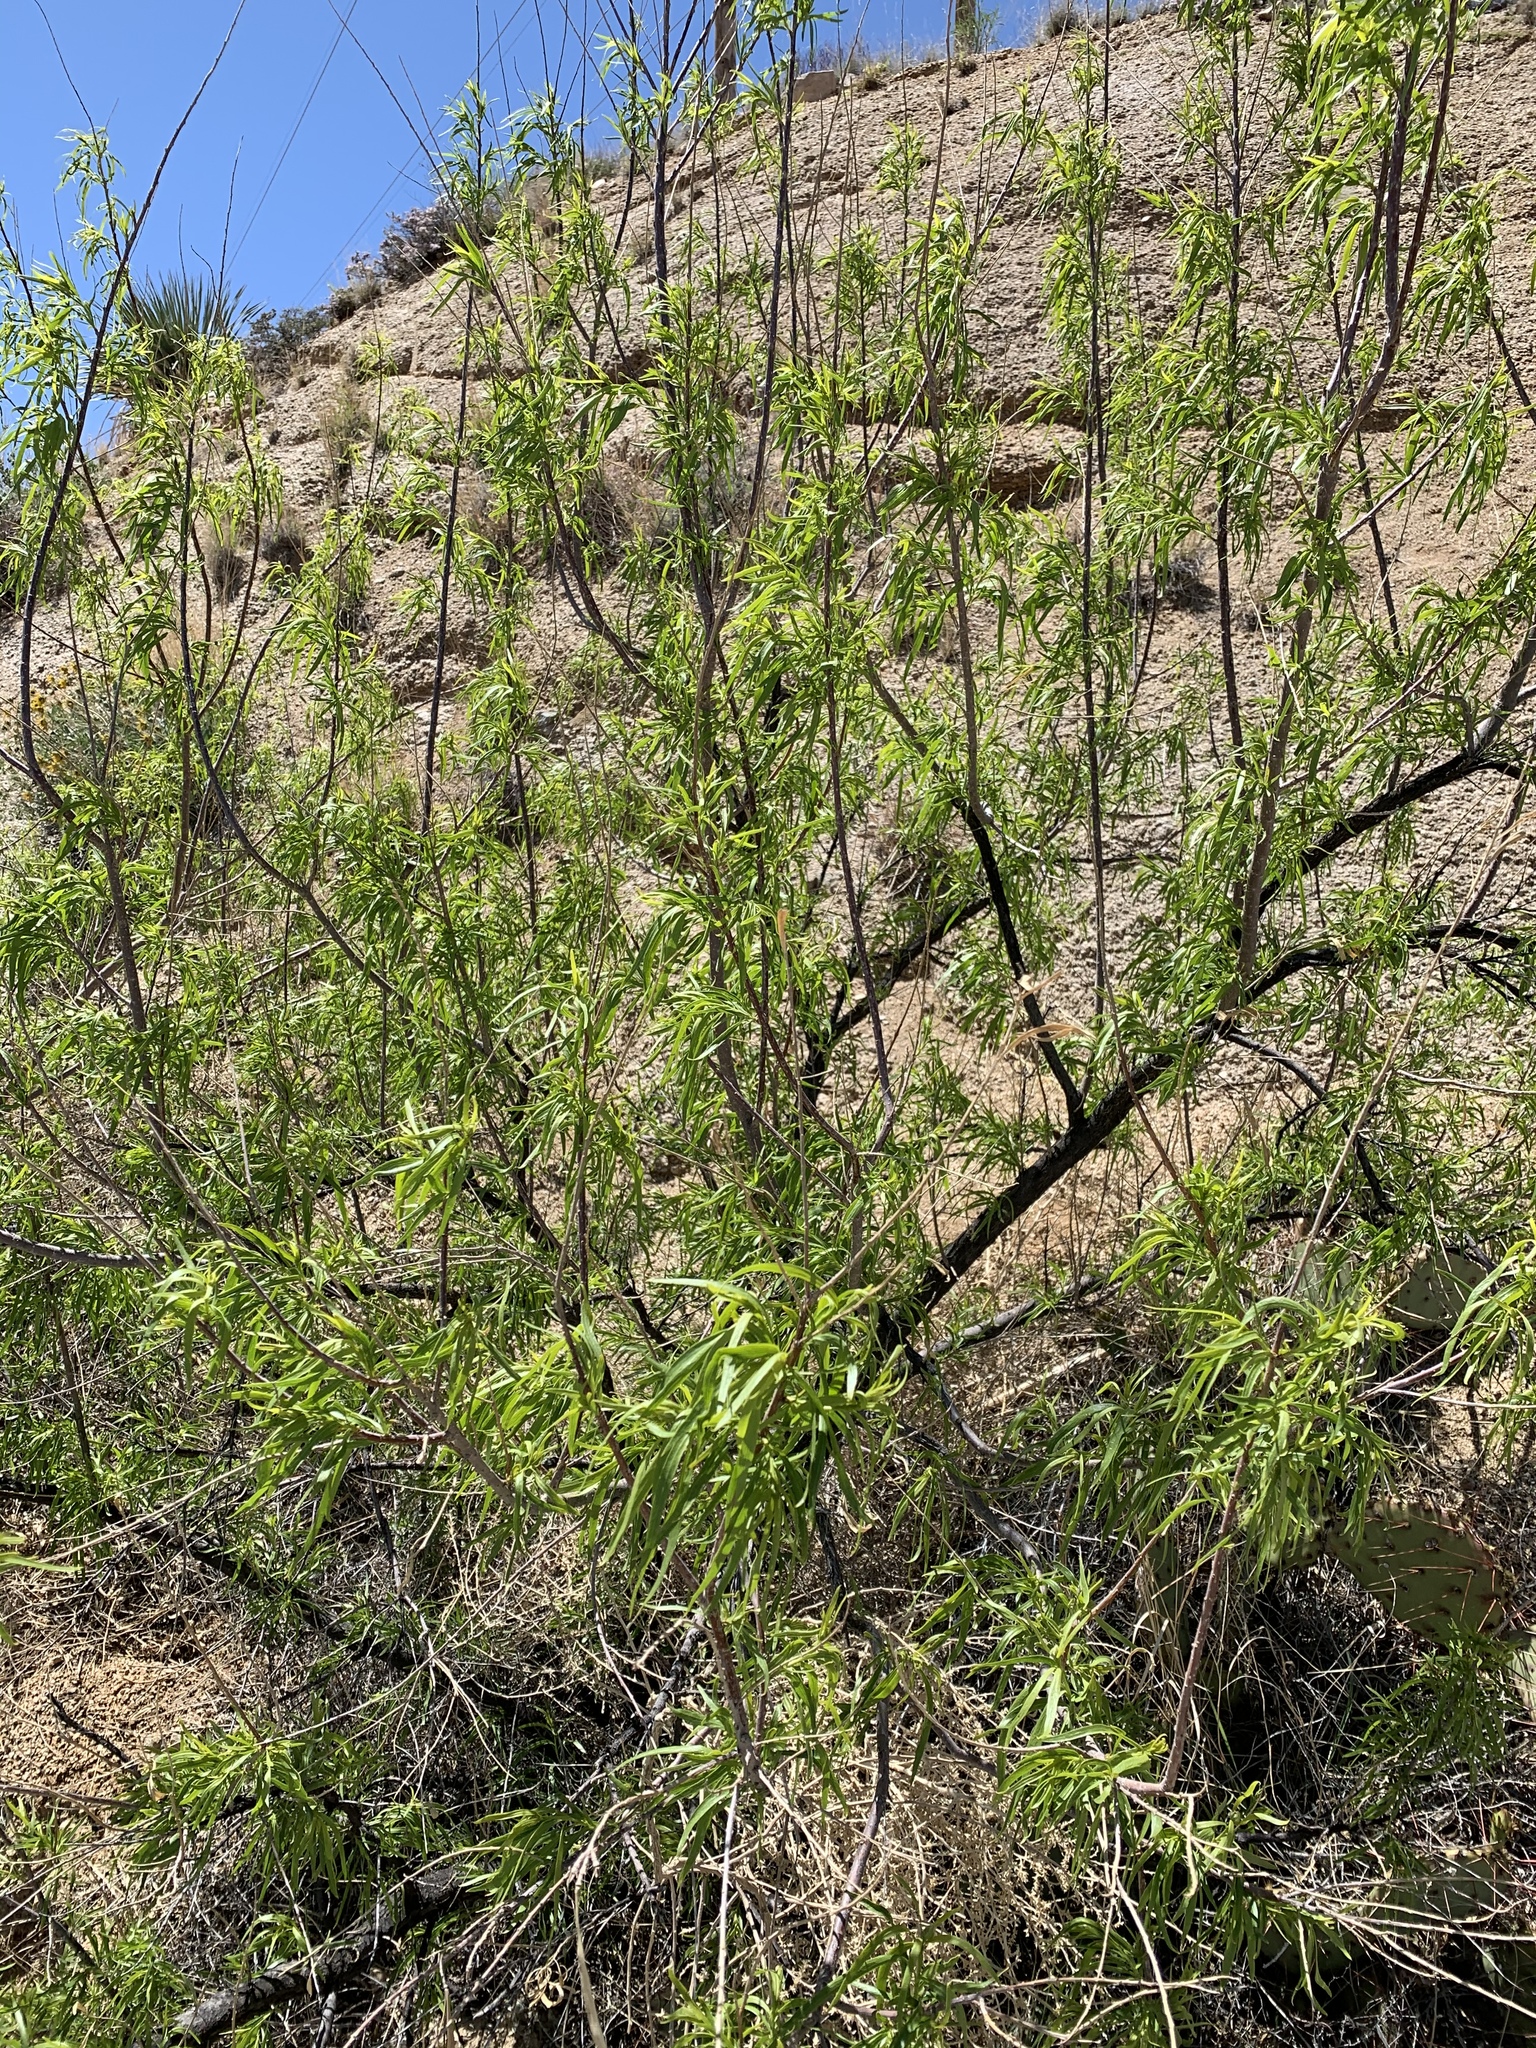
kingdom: Plantae
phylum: Tracheophyta
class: Magnoliopsida
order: Lamiales
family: Bignoniaceae
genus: Chilopsis
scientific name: Chilopsis linearis
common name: Desert-willow
